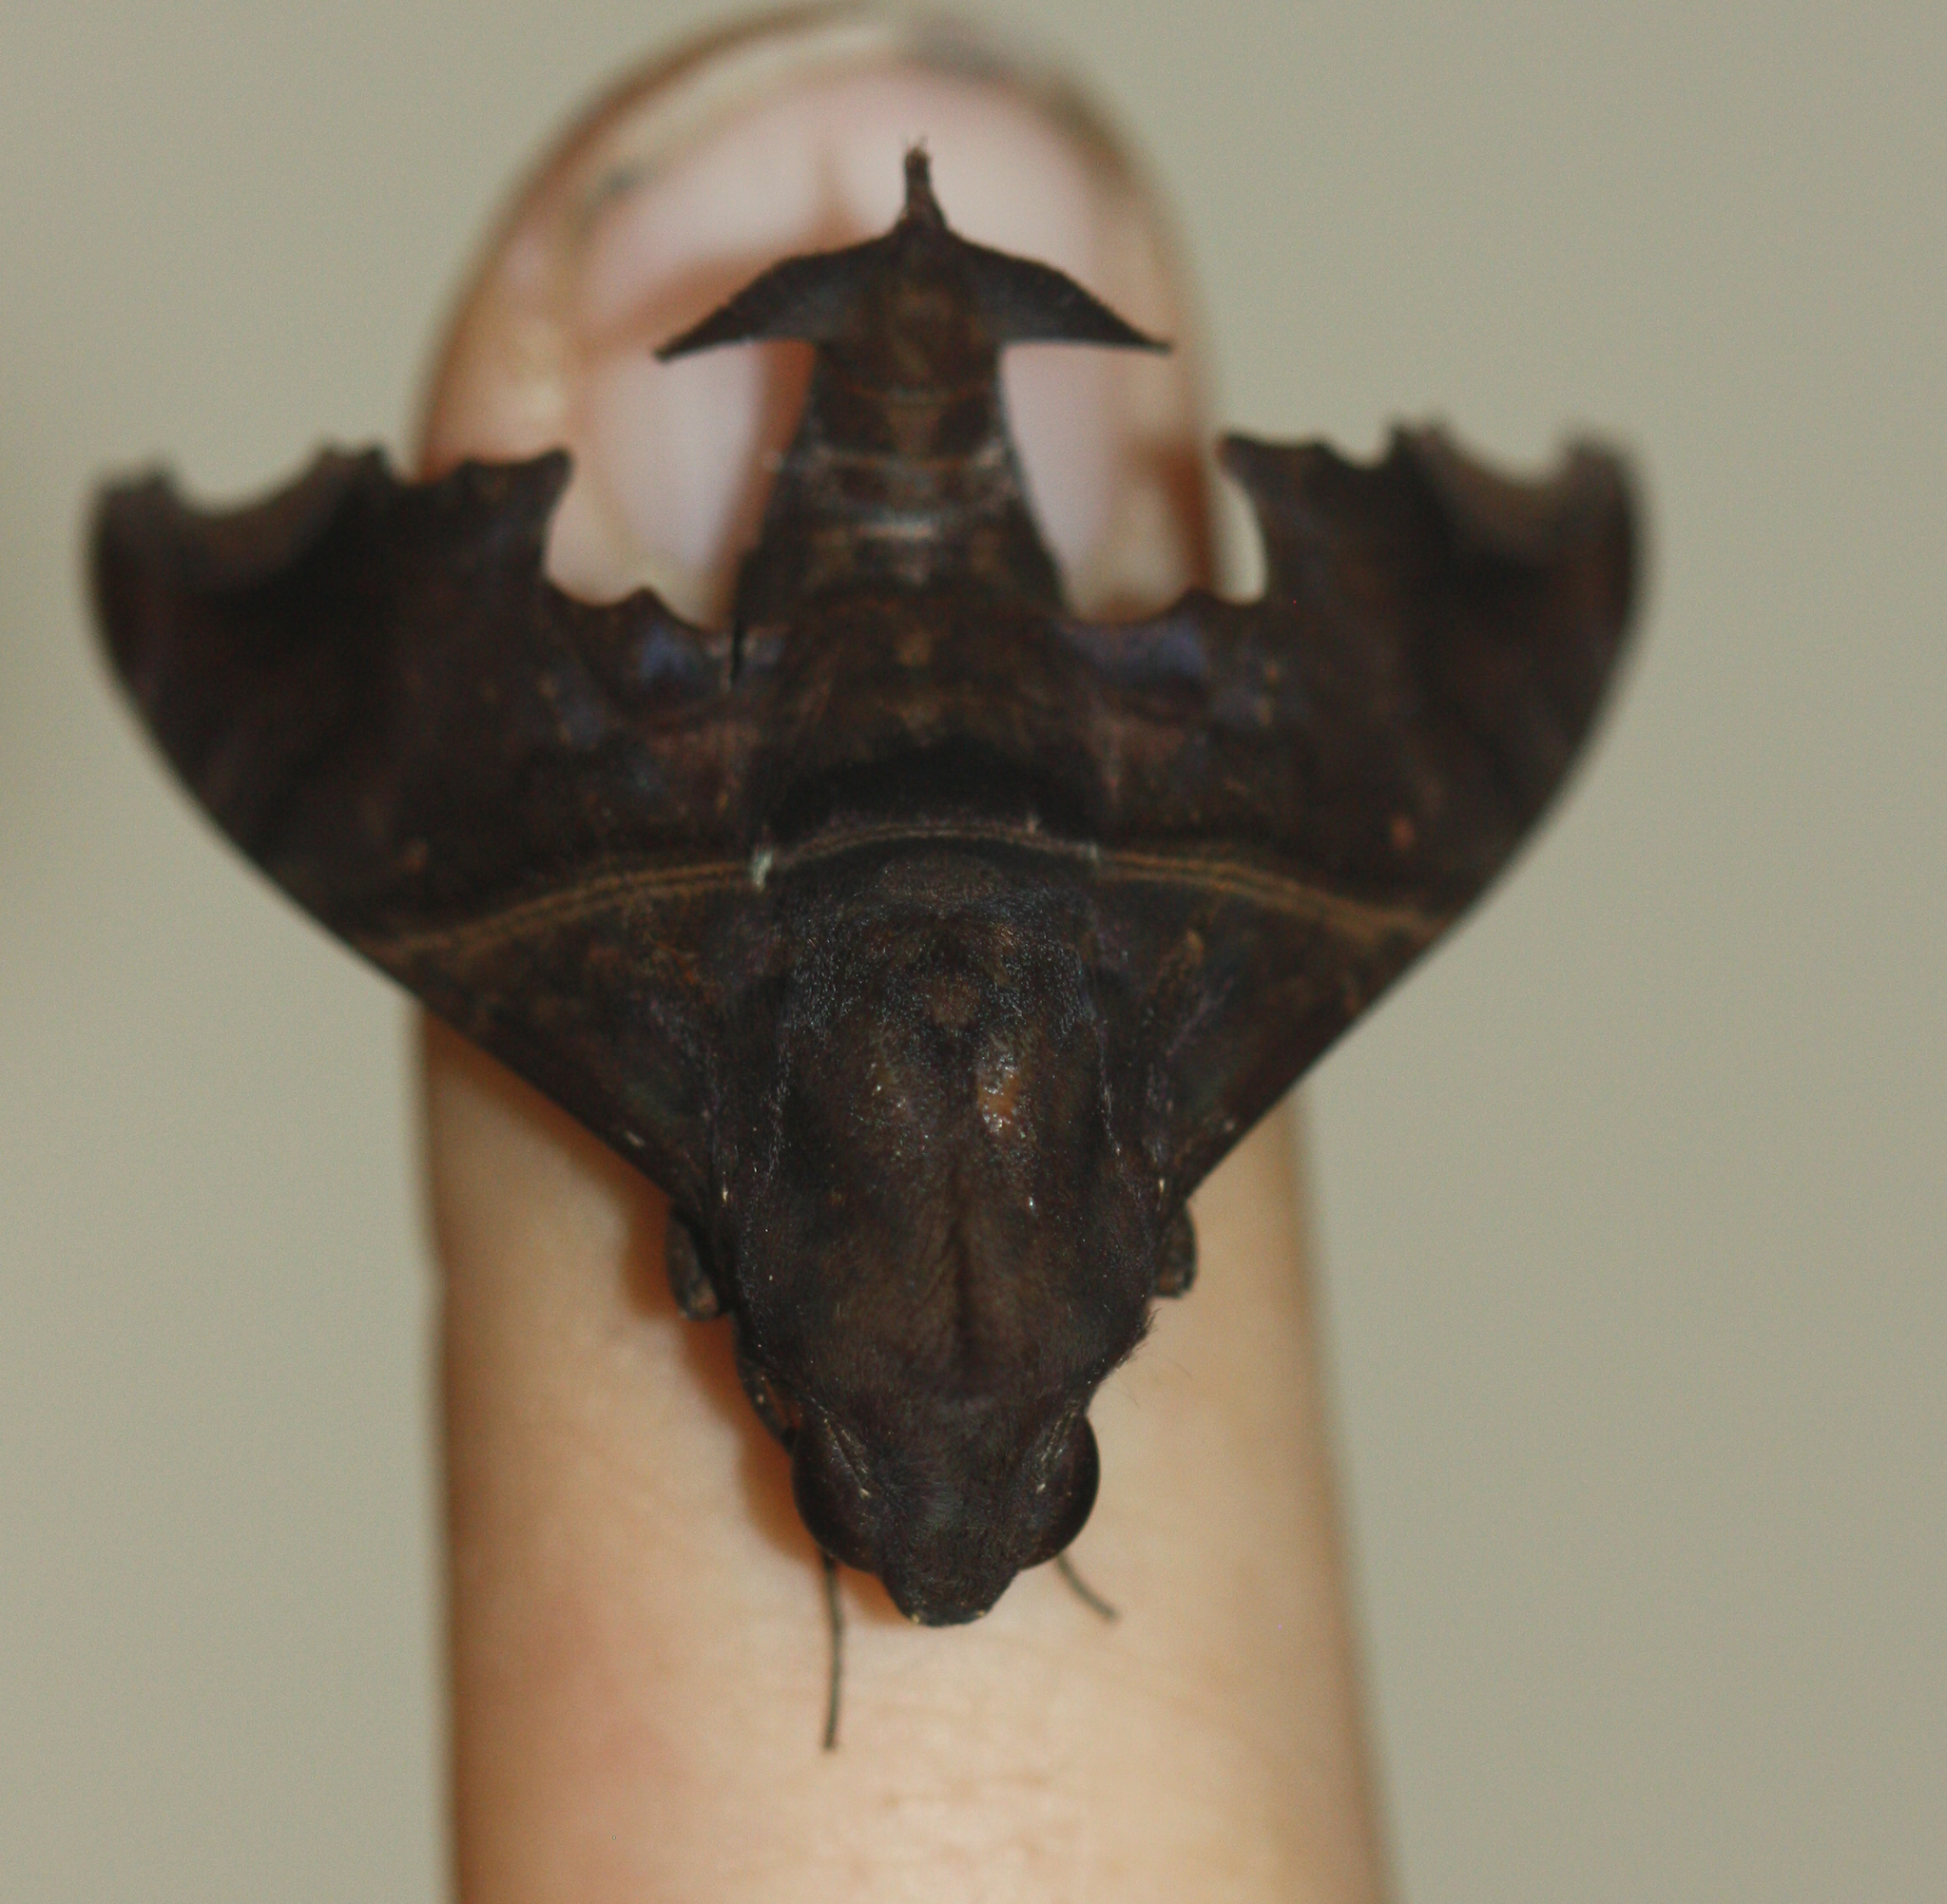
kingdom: Animalia
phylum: Arthropoda
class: Insecta
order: Lepidoptera
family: Sphingidae
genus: Enyo
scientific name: Enyo ocypete
